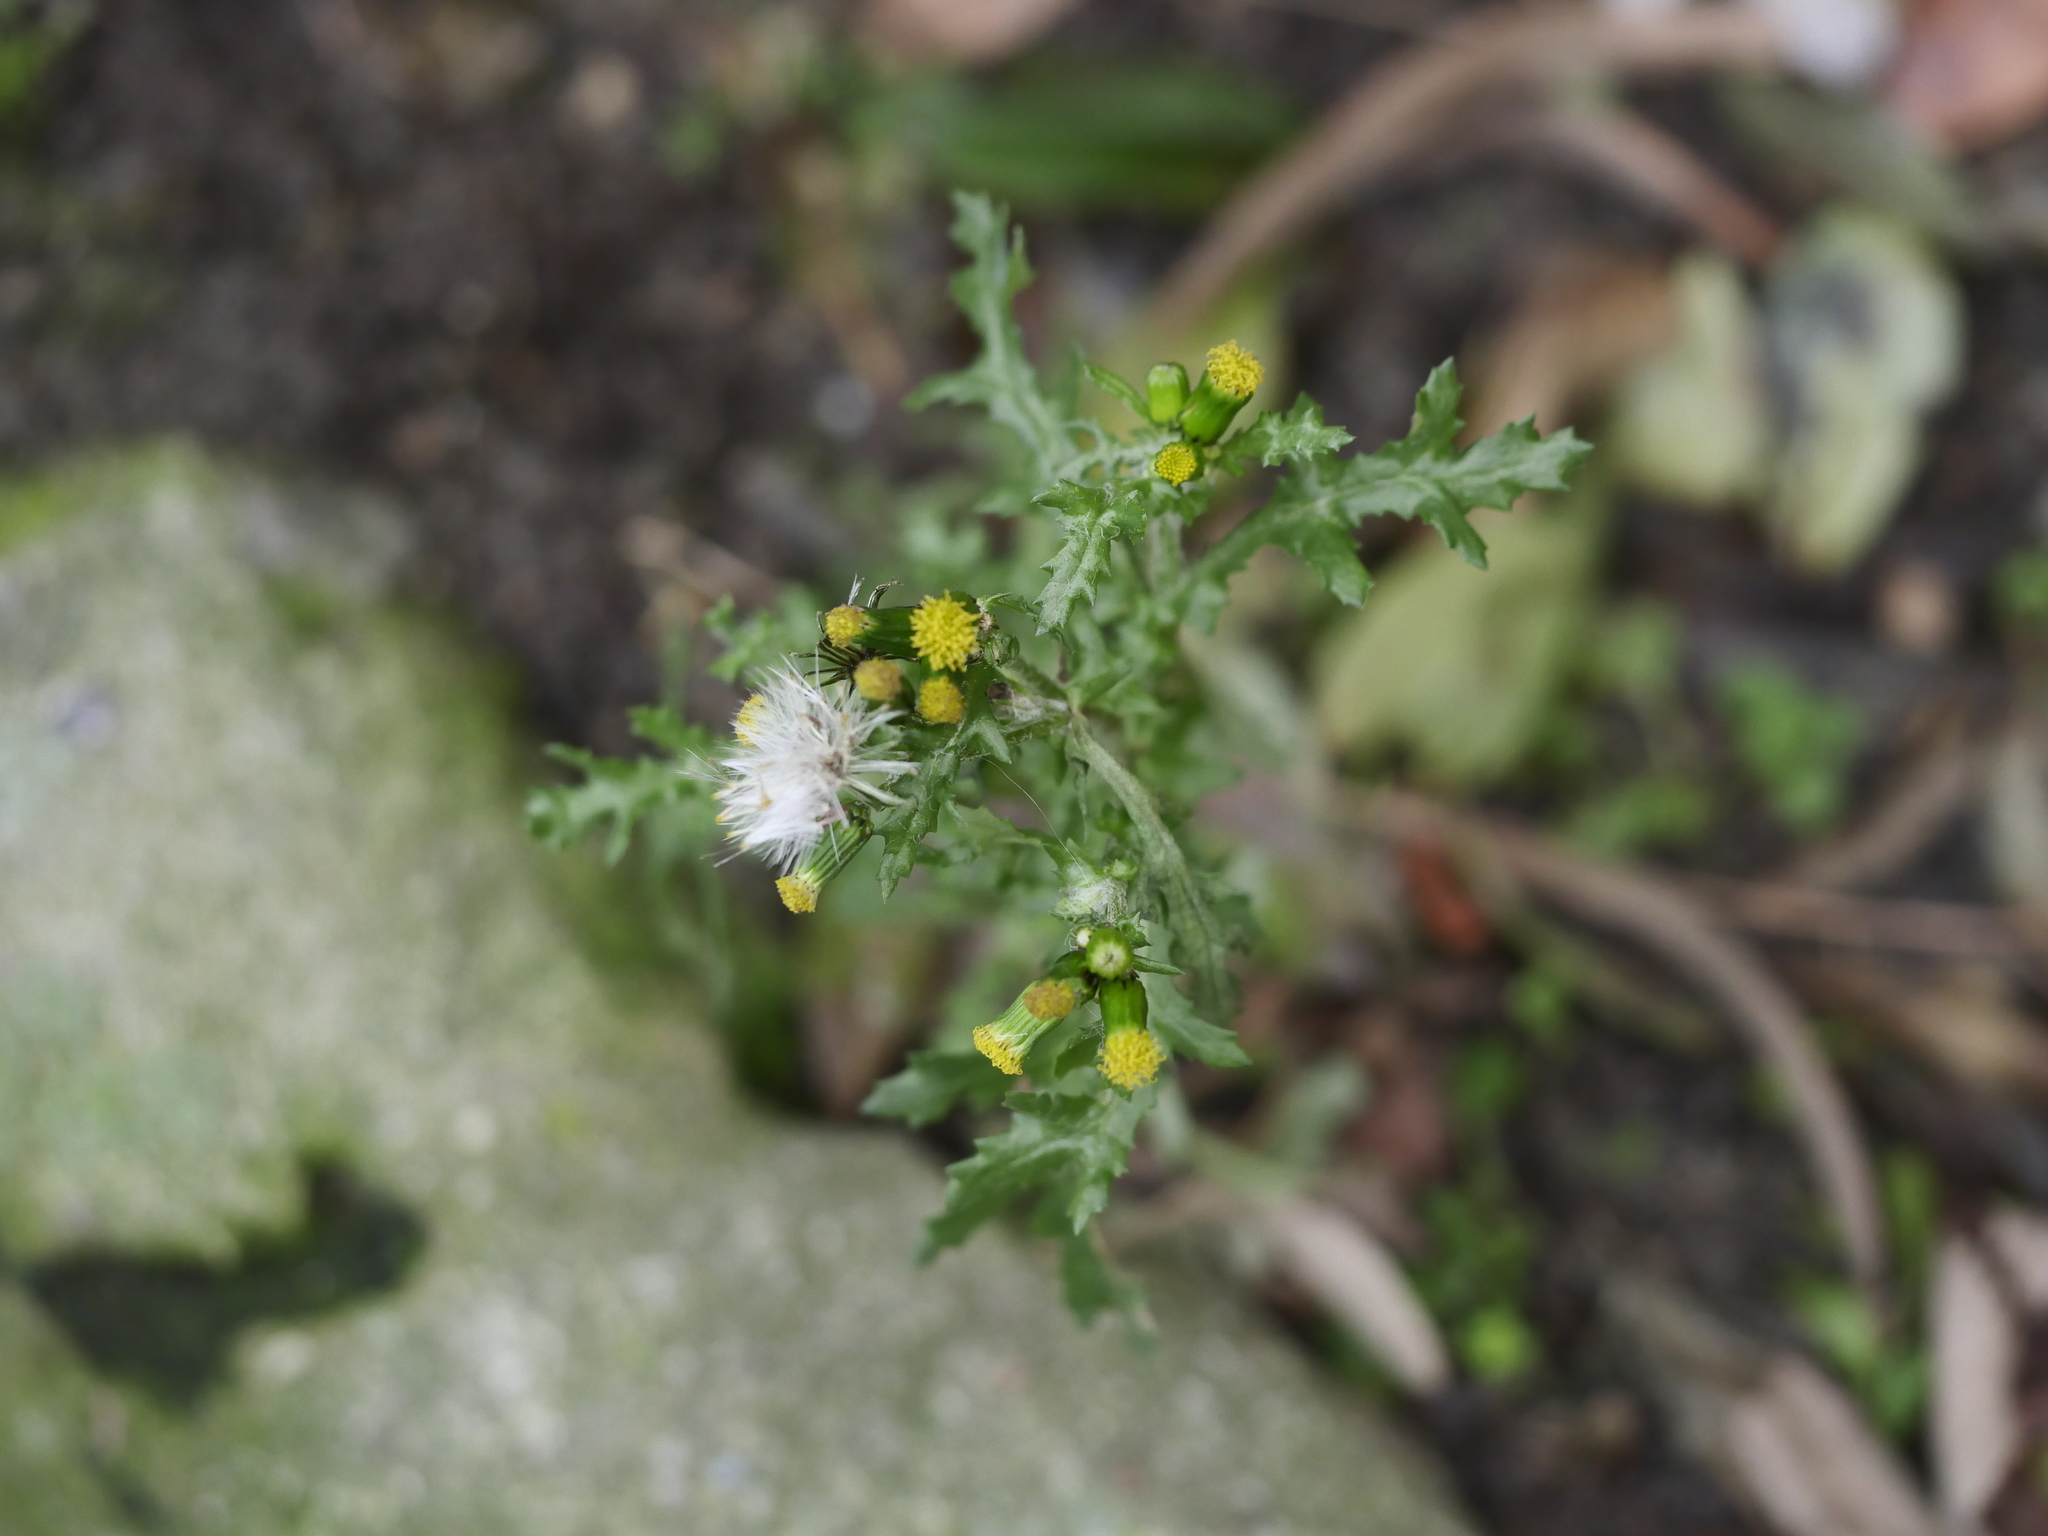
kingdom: Plantae
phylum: Tracheophyta
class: Magnoliopsida
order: Asterales
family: Asteraceae
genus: Senecio
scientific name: Senecio vulgaris
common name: Old-man-in-the-spring
